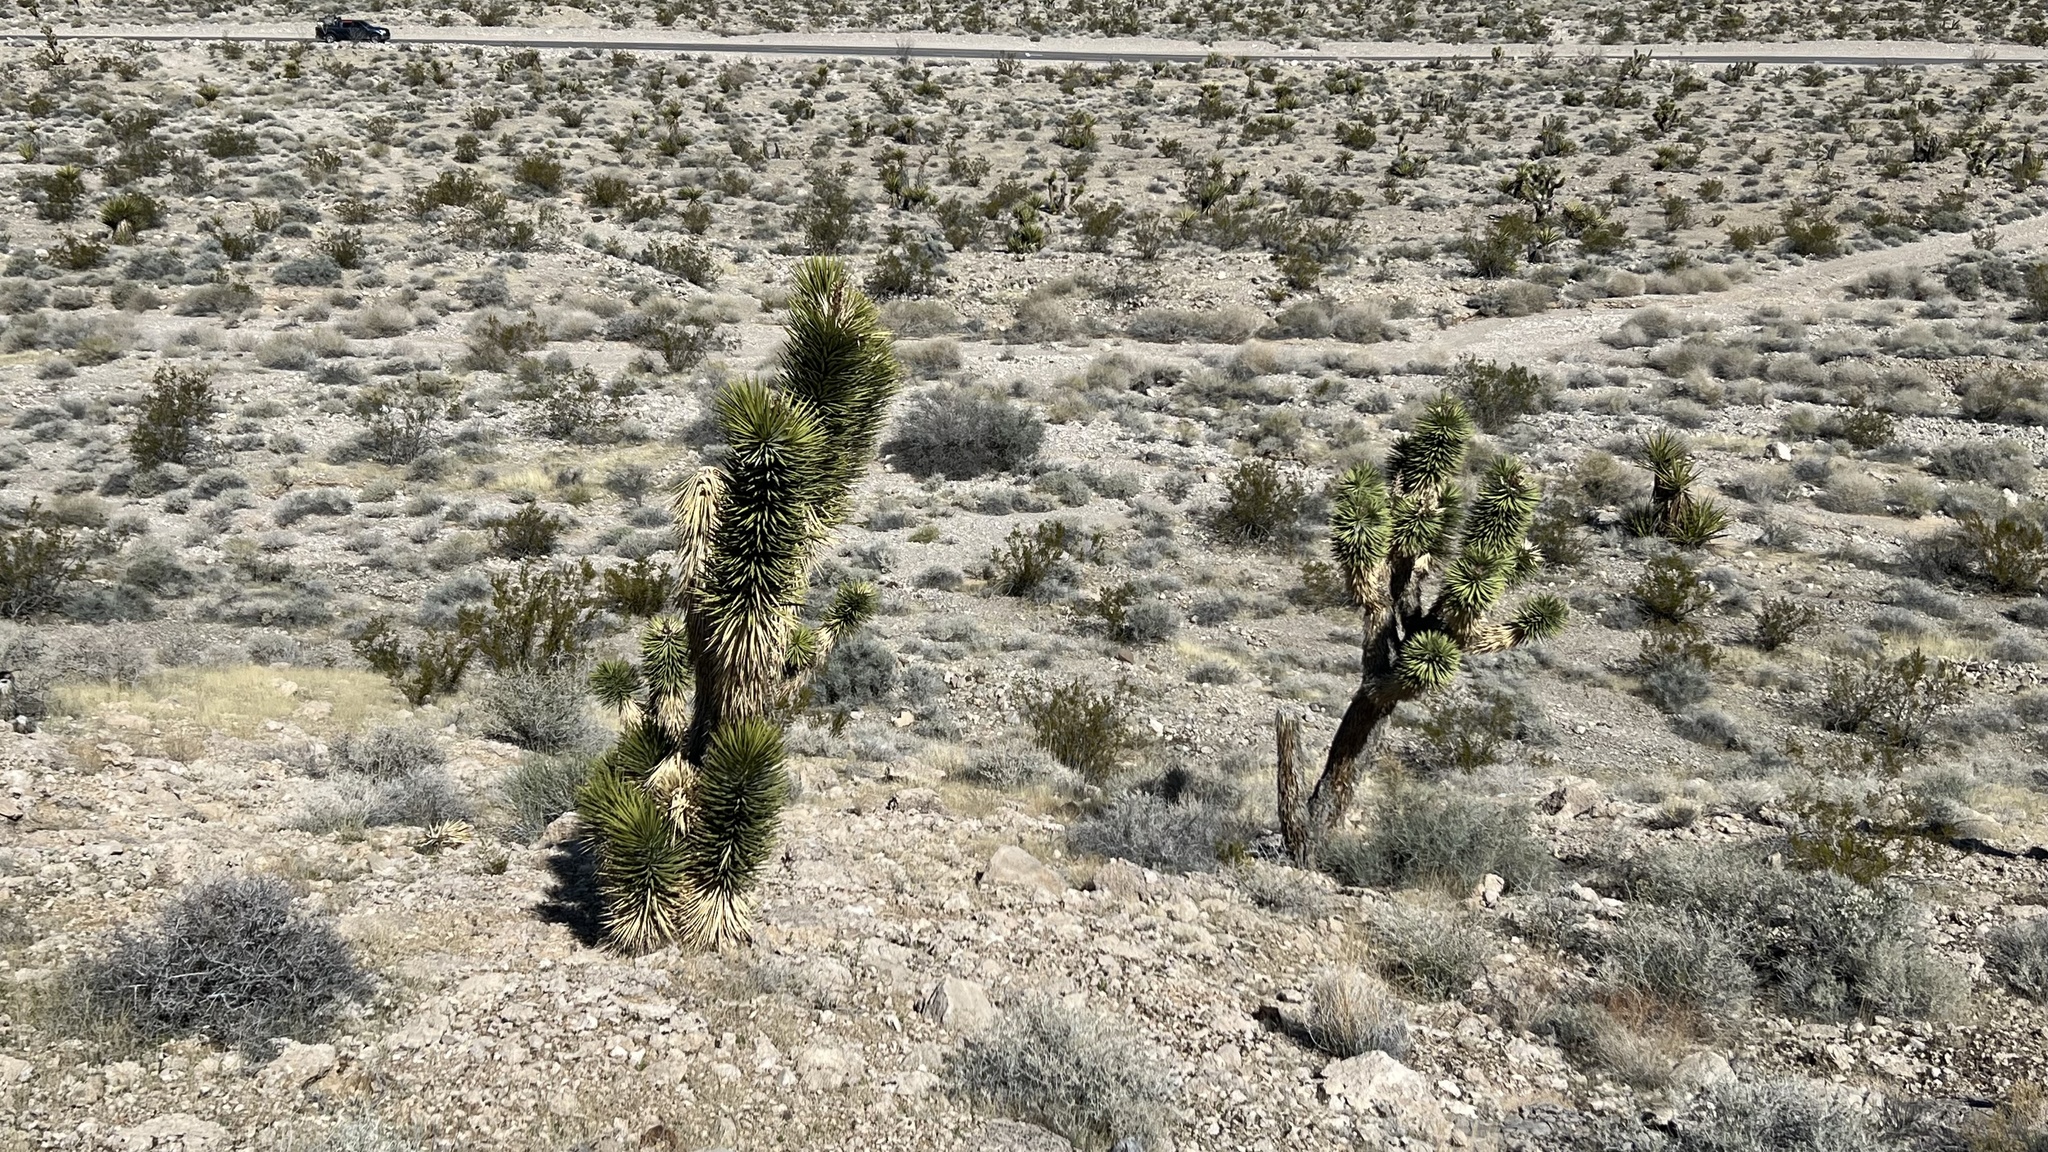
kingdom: Plantae
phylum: Tracheophyta
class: Liliopsida
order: Asparagales
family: Asparagaceae
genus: Yucca
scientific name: Yucca brevifolia
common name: Joshua tree
